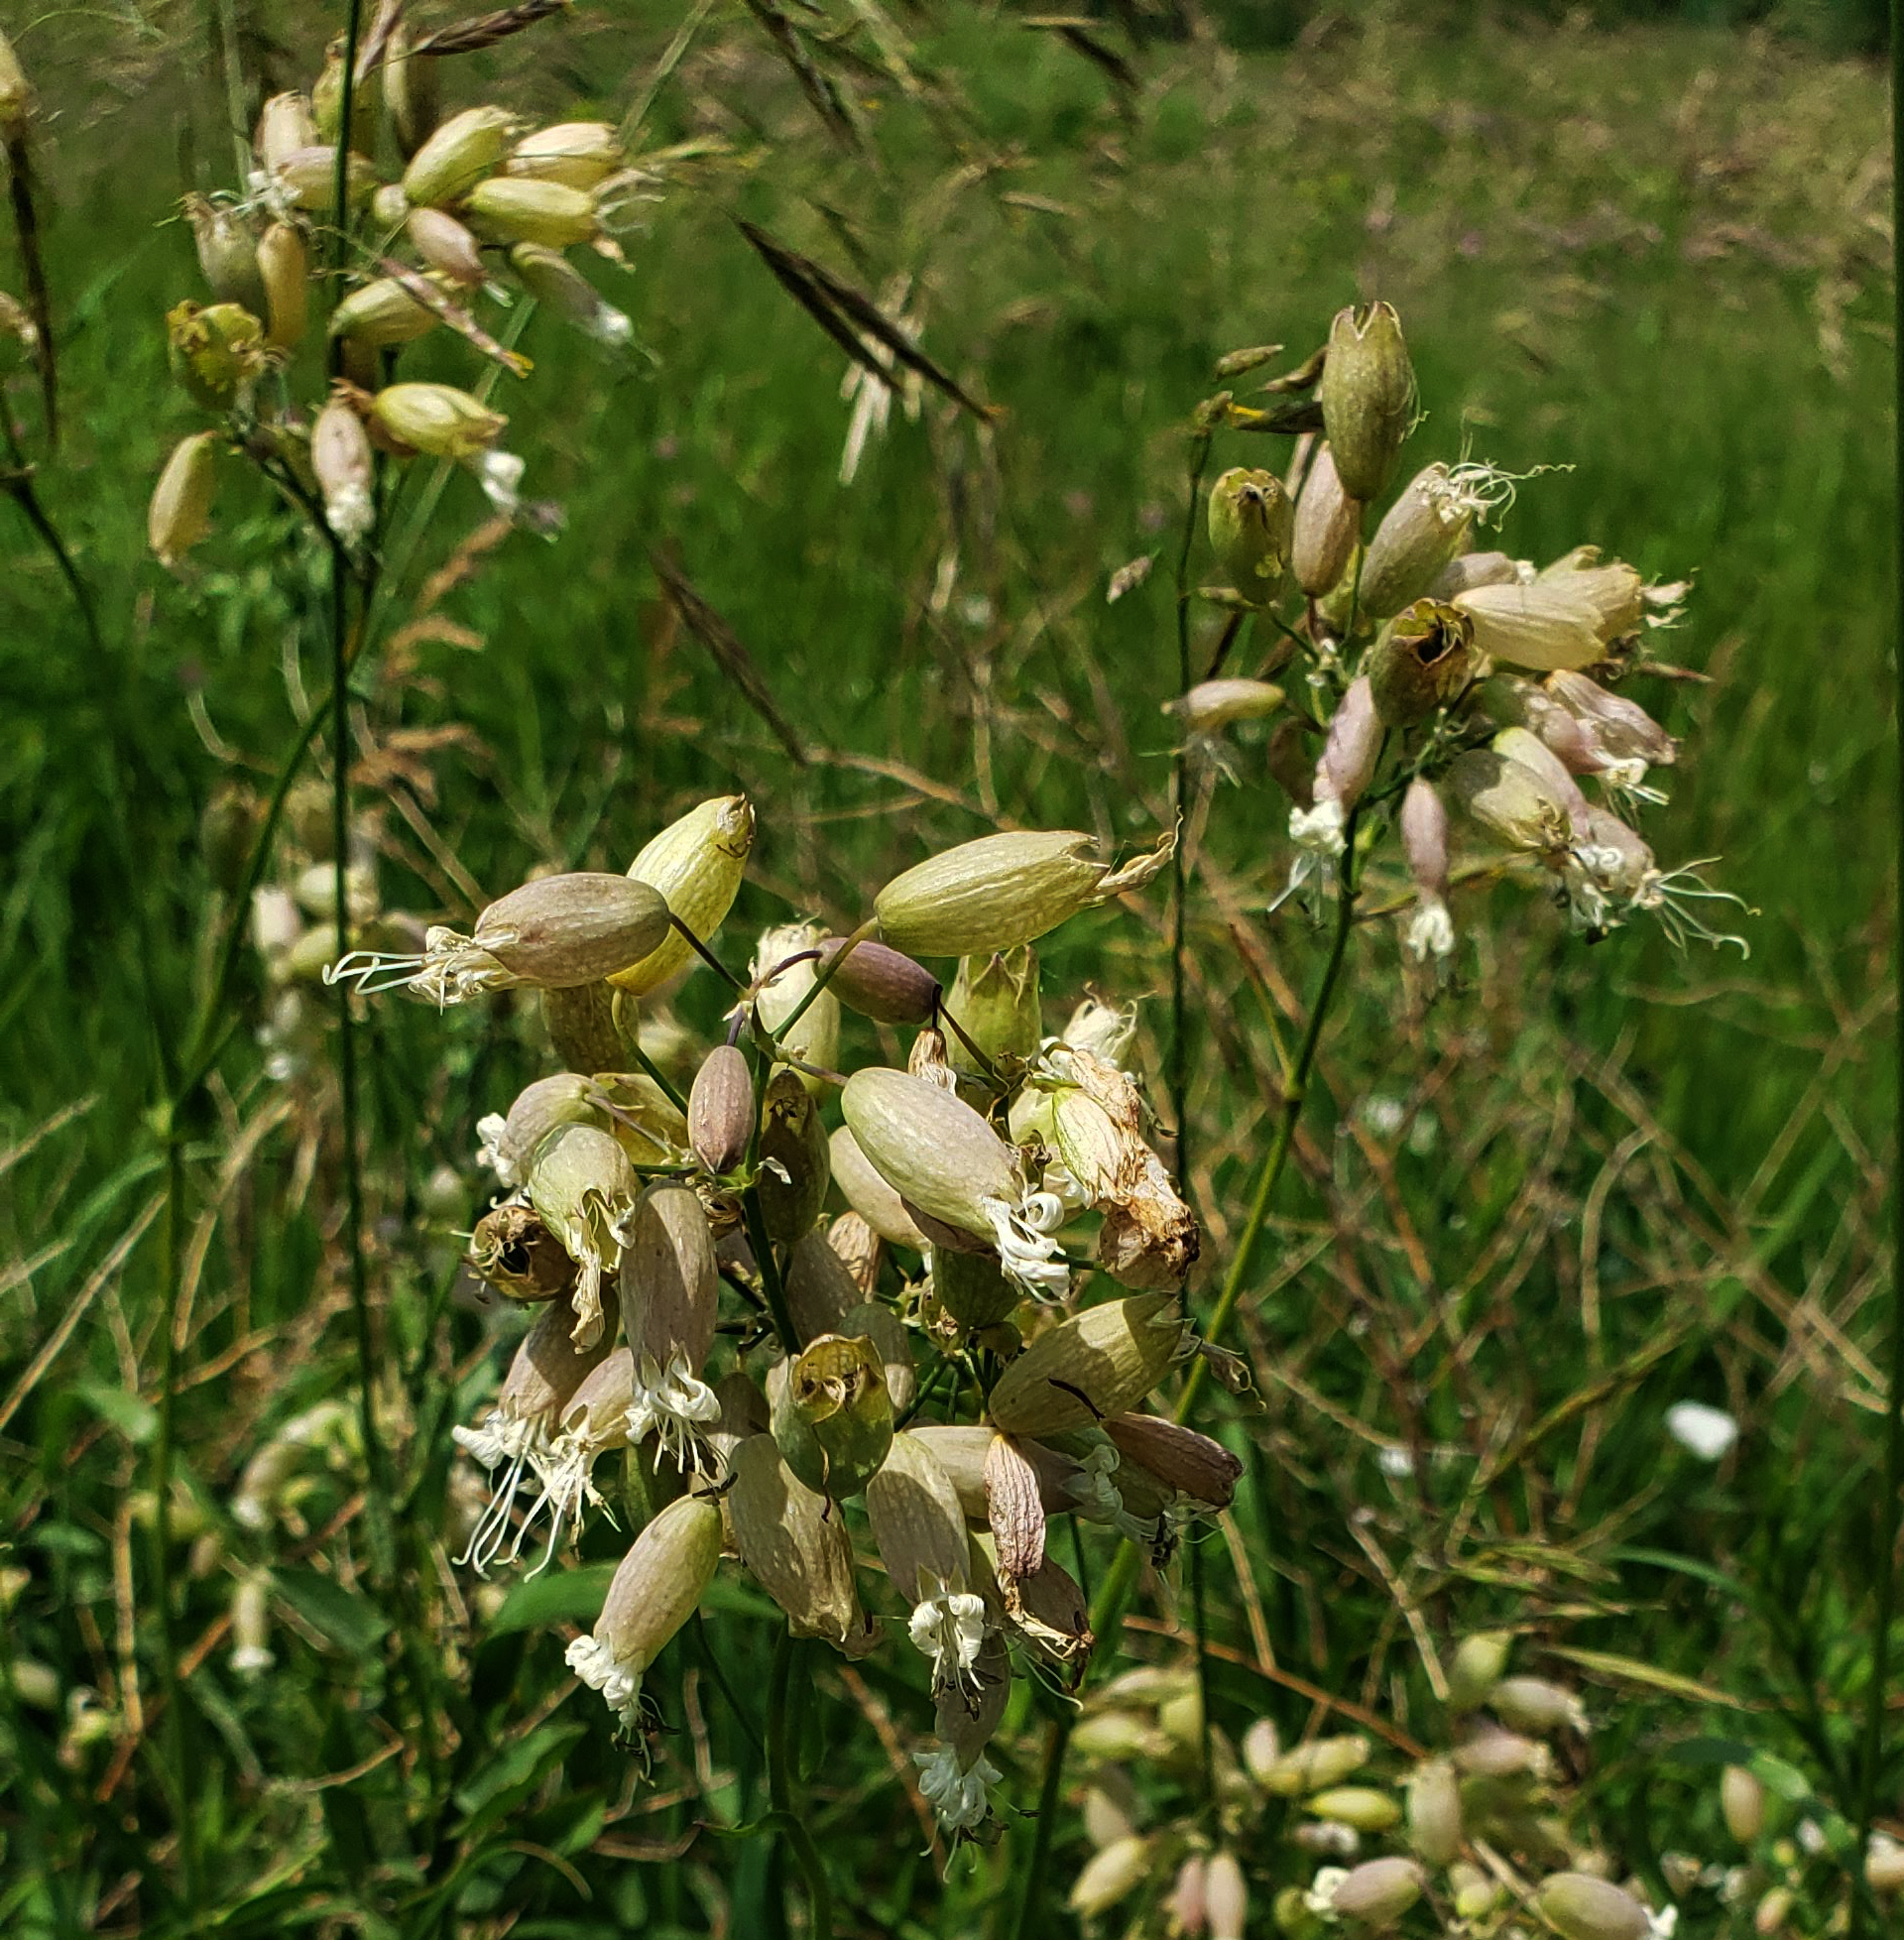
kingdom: Plantae
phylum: Tracheophyta
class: Magnoliopsida
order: Caryophyllales
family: Caryophyllaceae
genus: Silene
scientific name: Silene vulgaris
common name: Bladder campion
